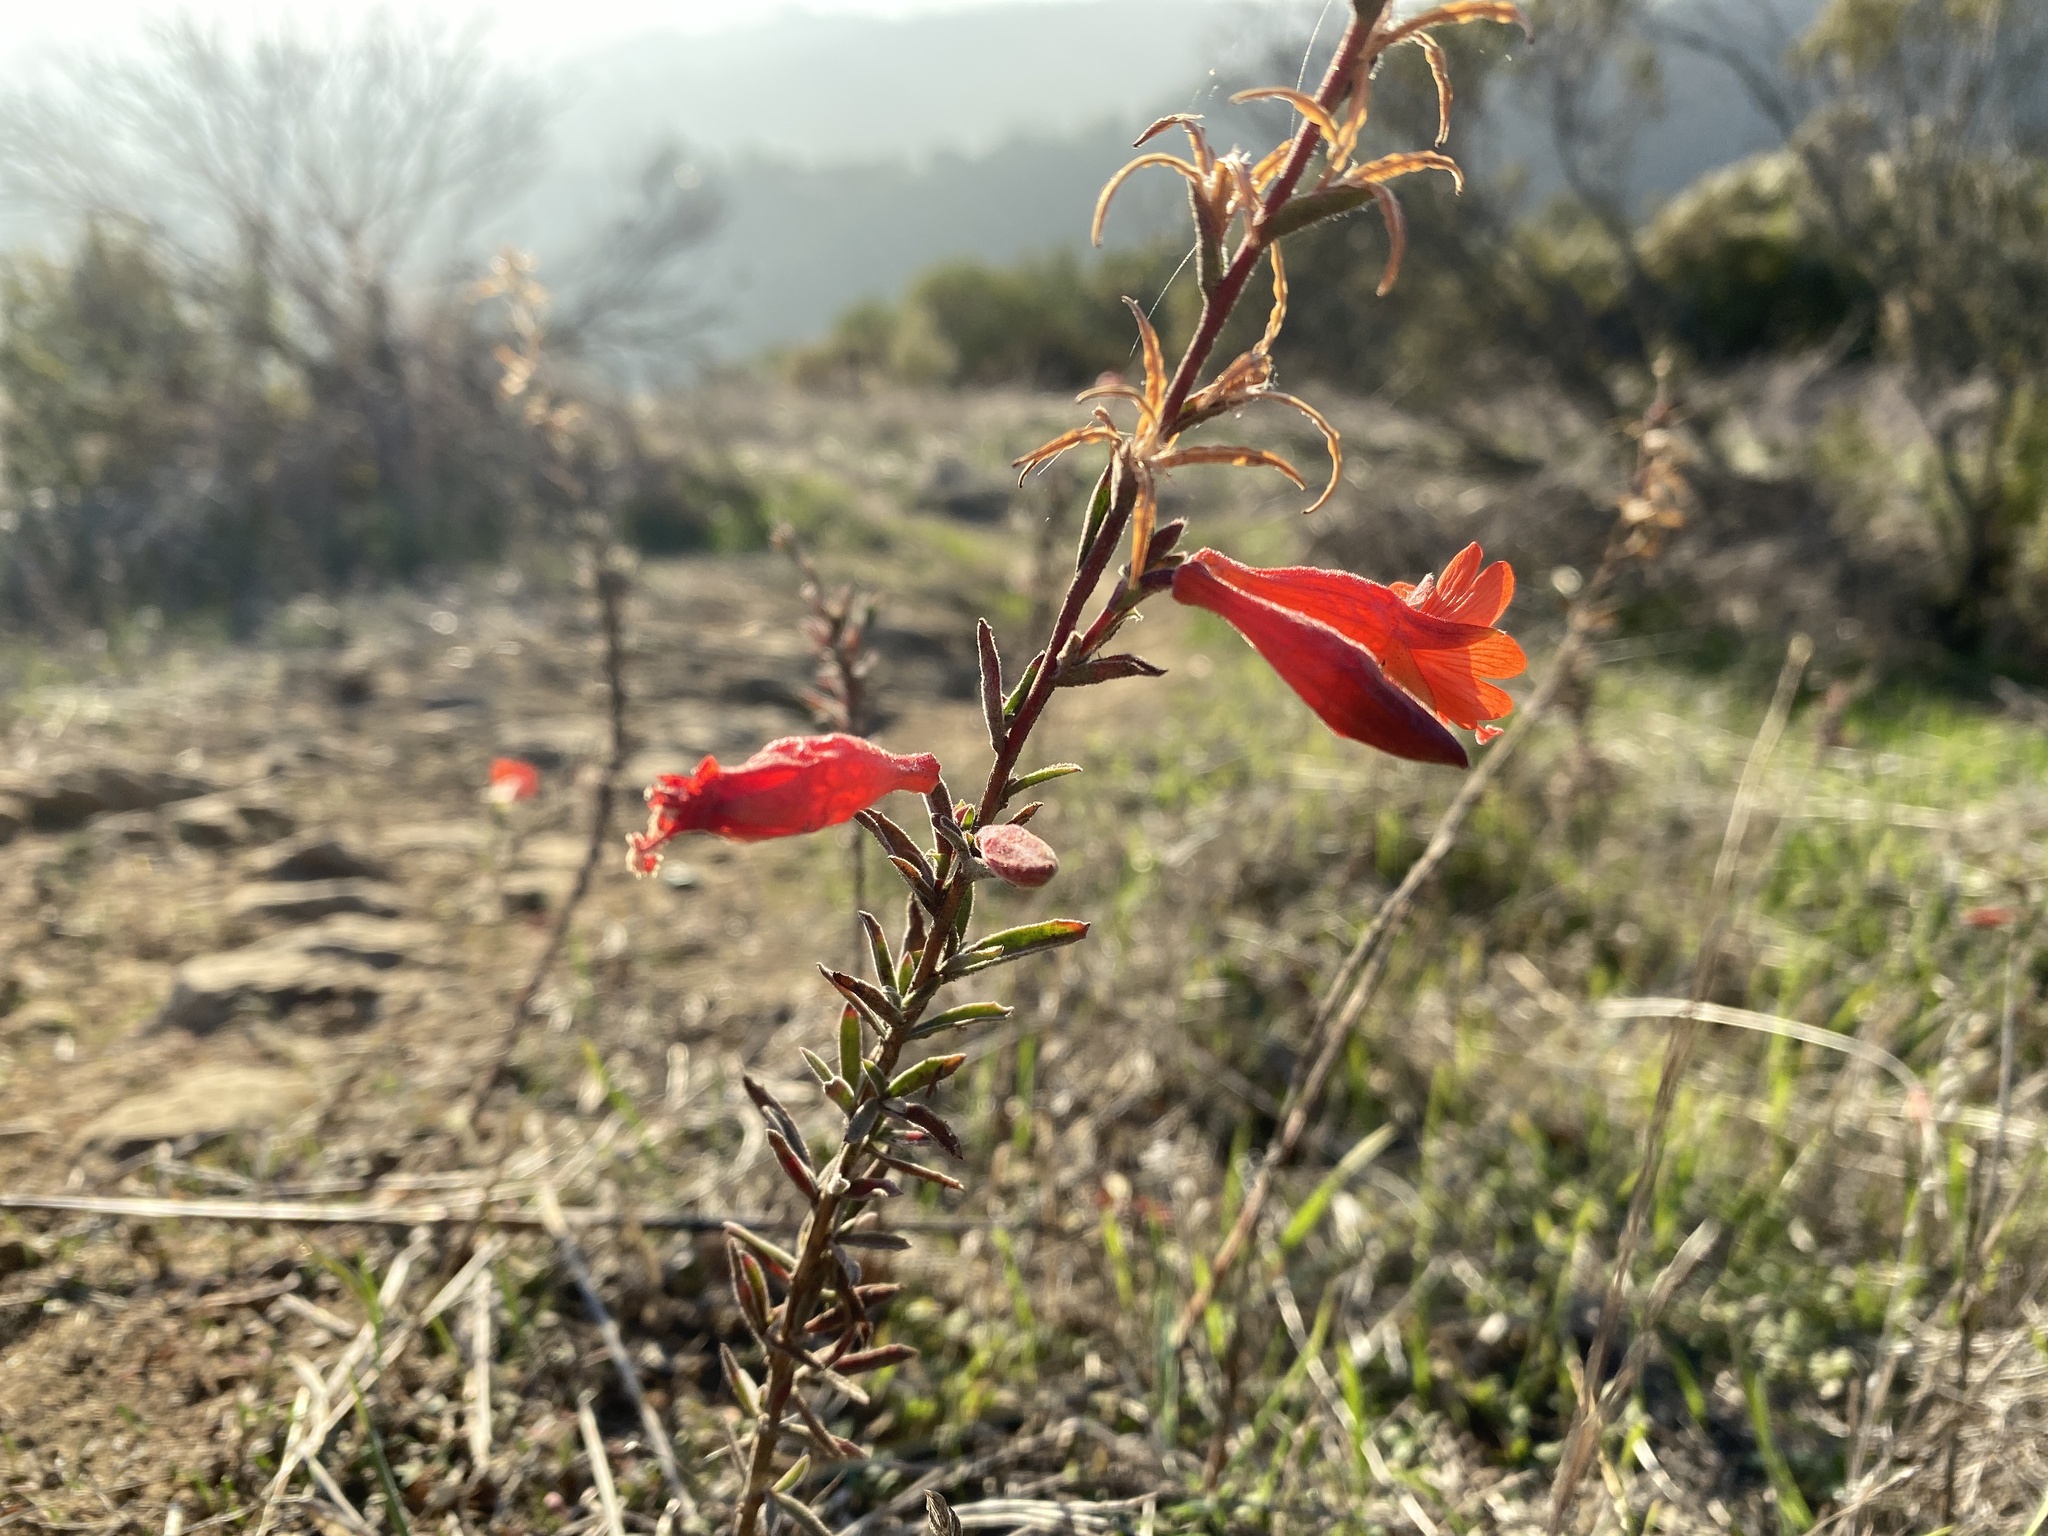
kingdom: Plantae
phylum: Tracheophyta
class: Magnoliopsida
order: Myrtales
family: Onagraceae
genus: Epilobium
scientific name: Epilobium canum
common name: California-fuchsia
